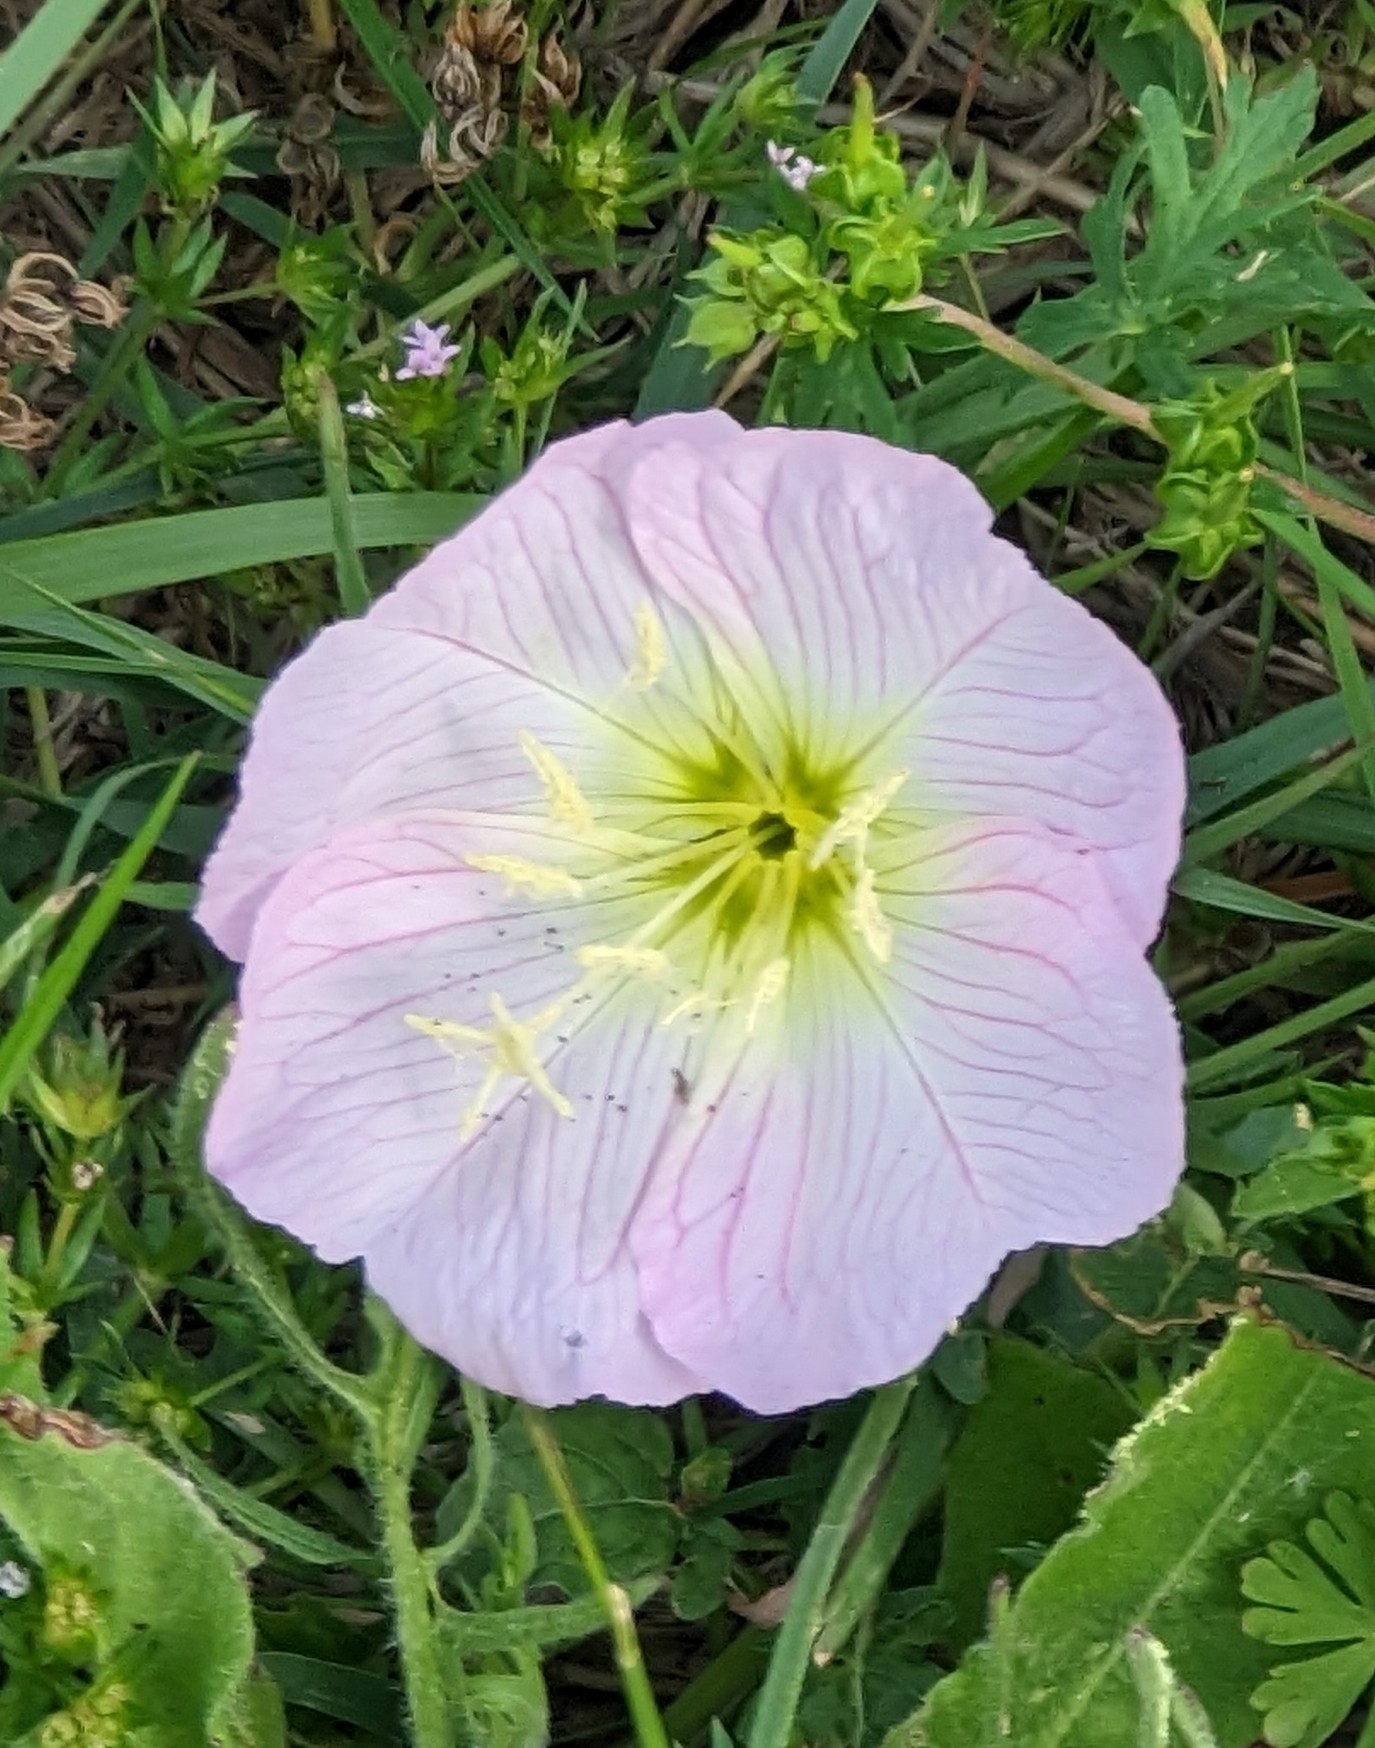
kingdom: Plantae
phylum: Tracheophyta
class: Magnoliopsida
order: Myrtales
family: Onagraceae
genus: Oenothera
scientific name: Oenothera speciosa
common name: White evening-primrose
